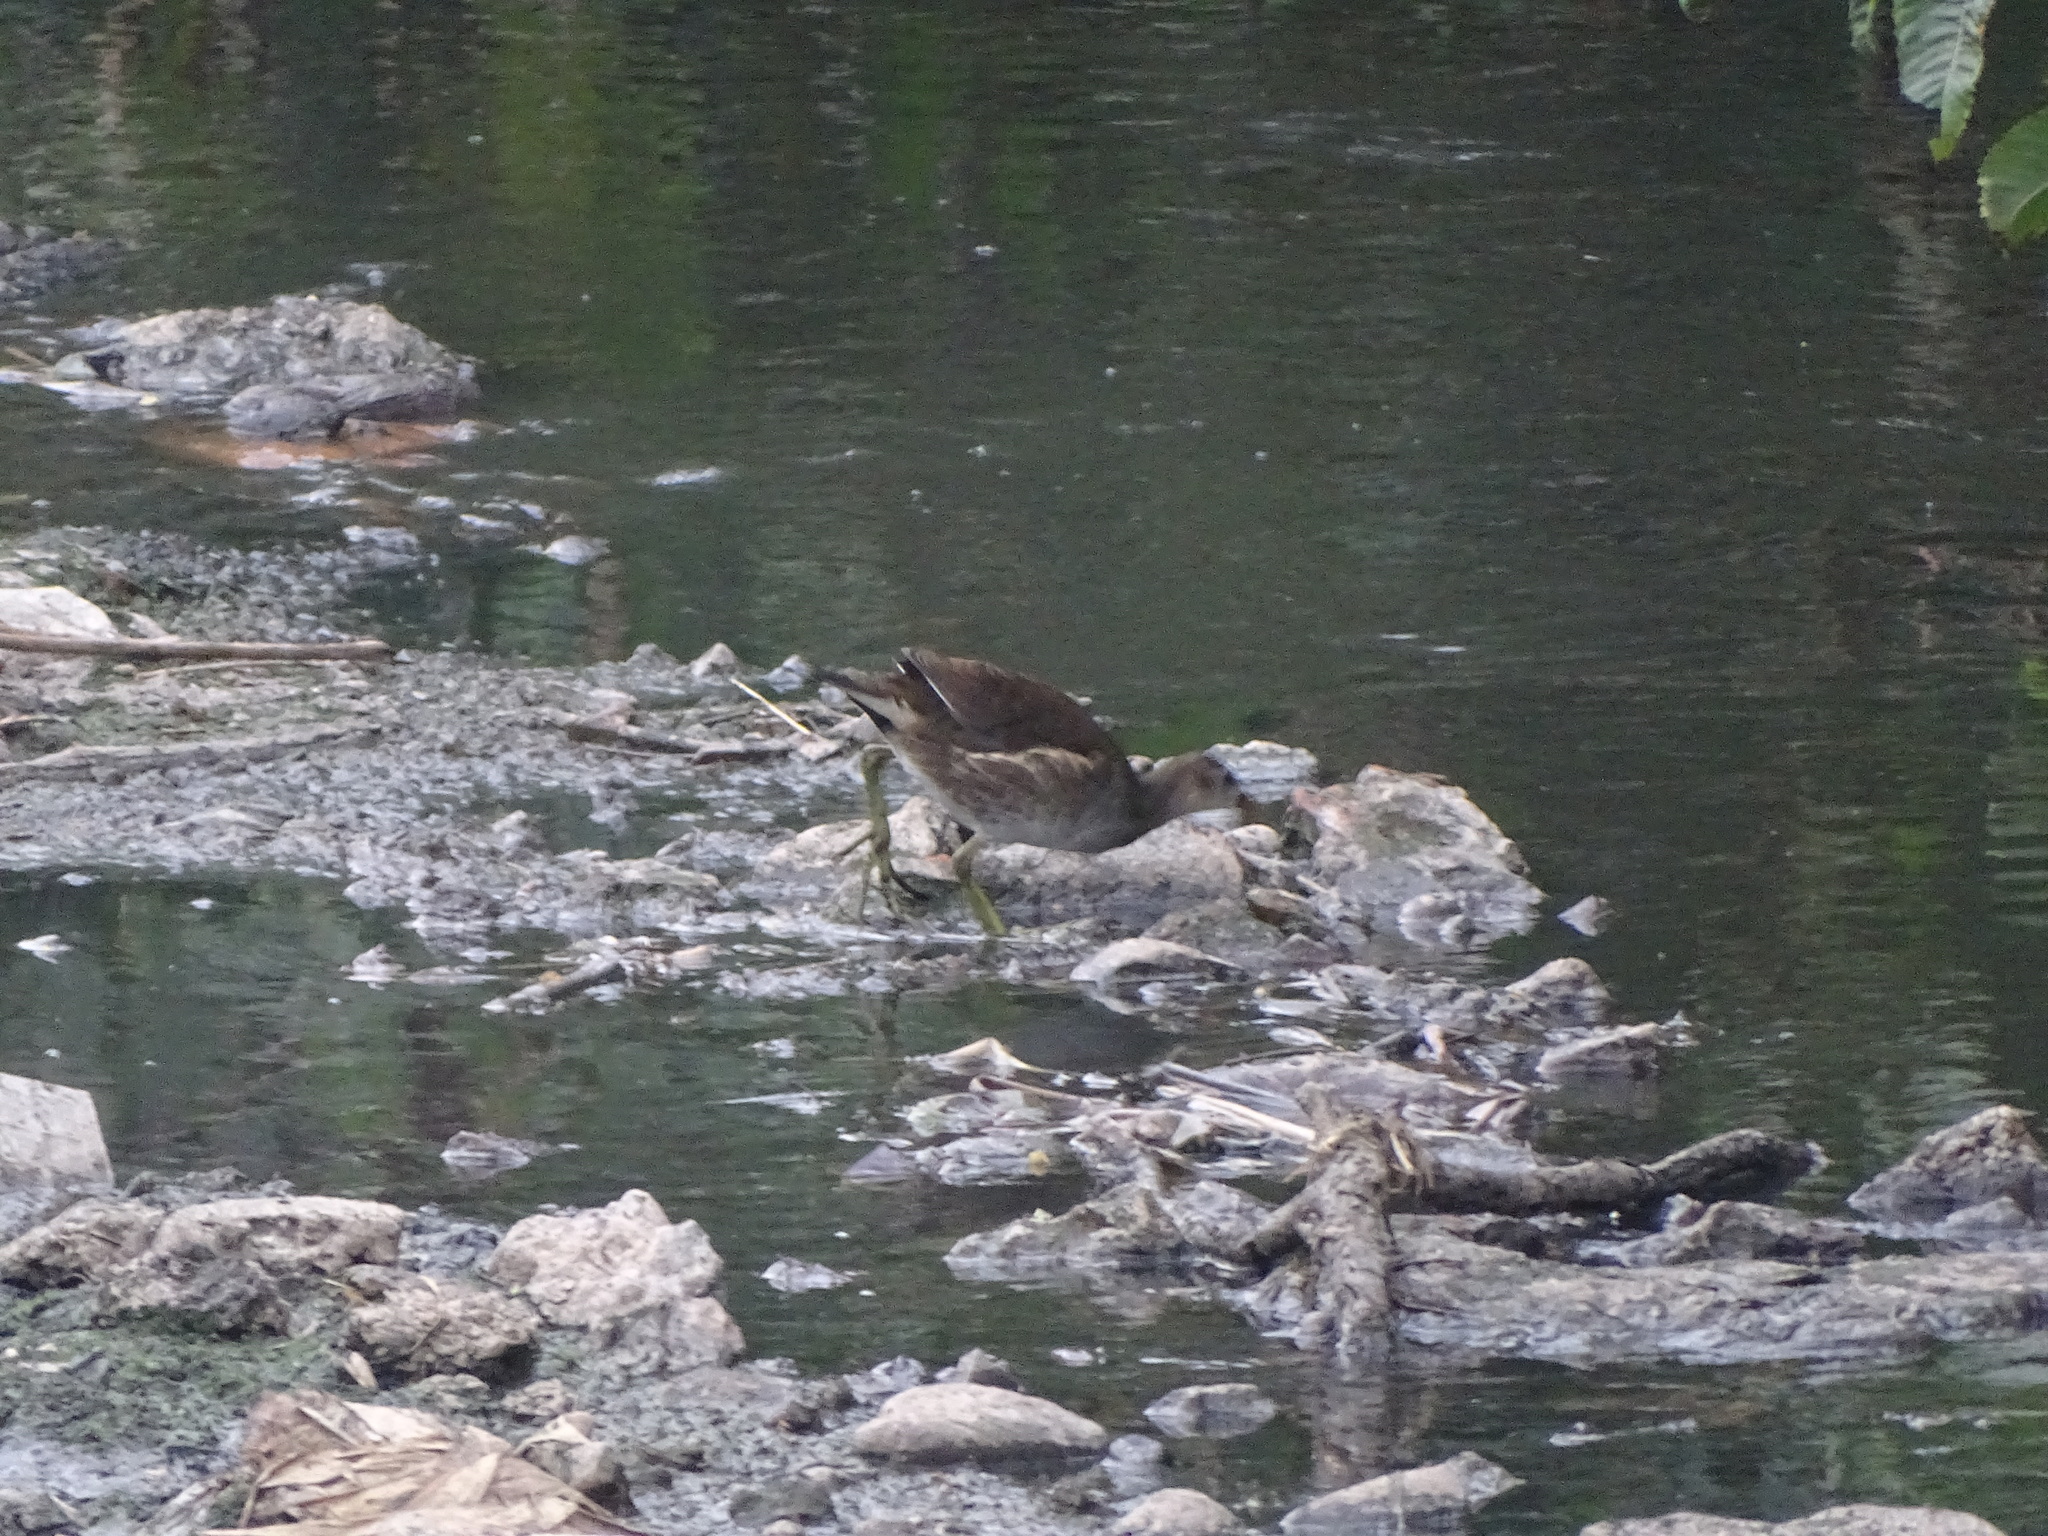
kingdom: Animalia
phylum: Chordata
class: Aves
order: Gruiformes
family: Rallidae
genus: Gallinula
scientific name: Gallinula chloropus
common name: Common moorhen
